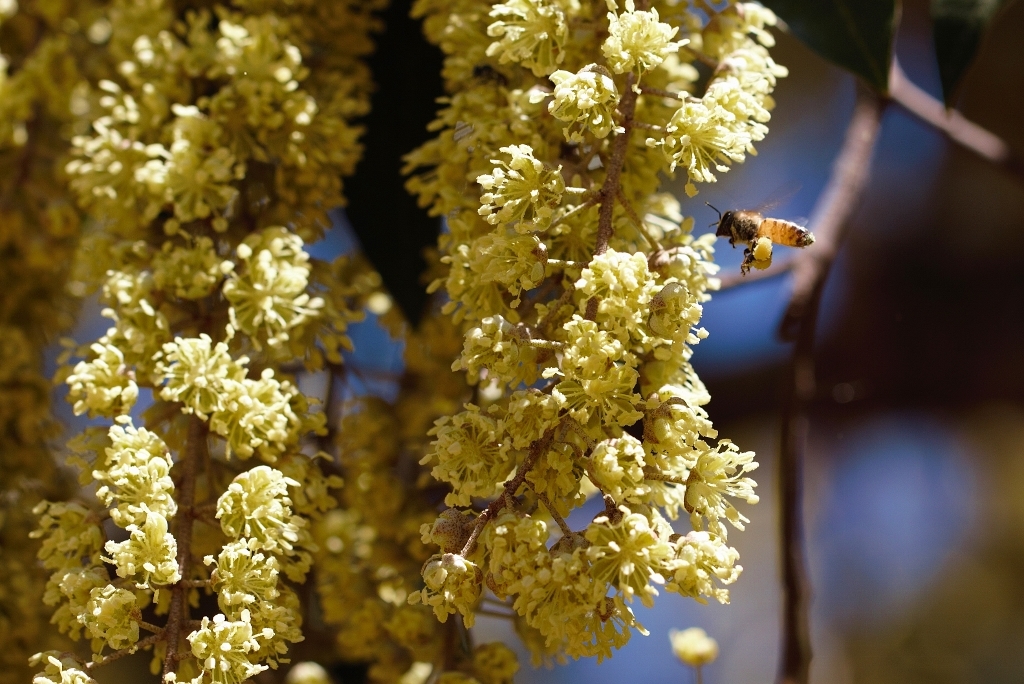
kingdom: Animalia
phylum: Arthropoda
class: Insecta
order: Hymenoptera
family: Apidae
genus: Apis
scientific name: Apis mellifera
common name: Honey bee
